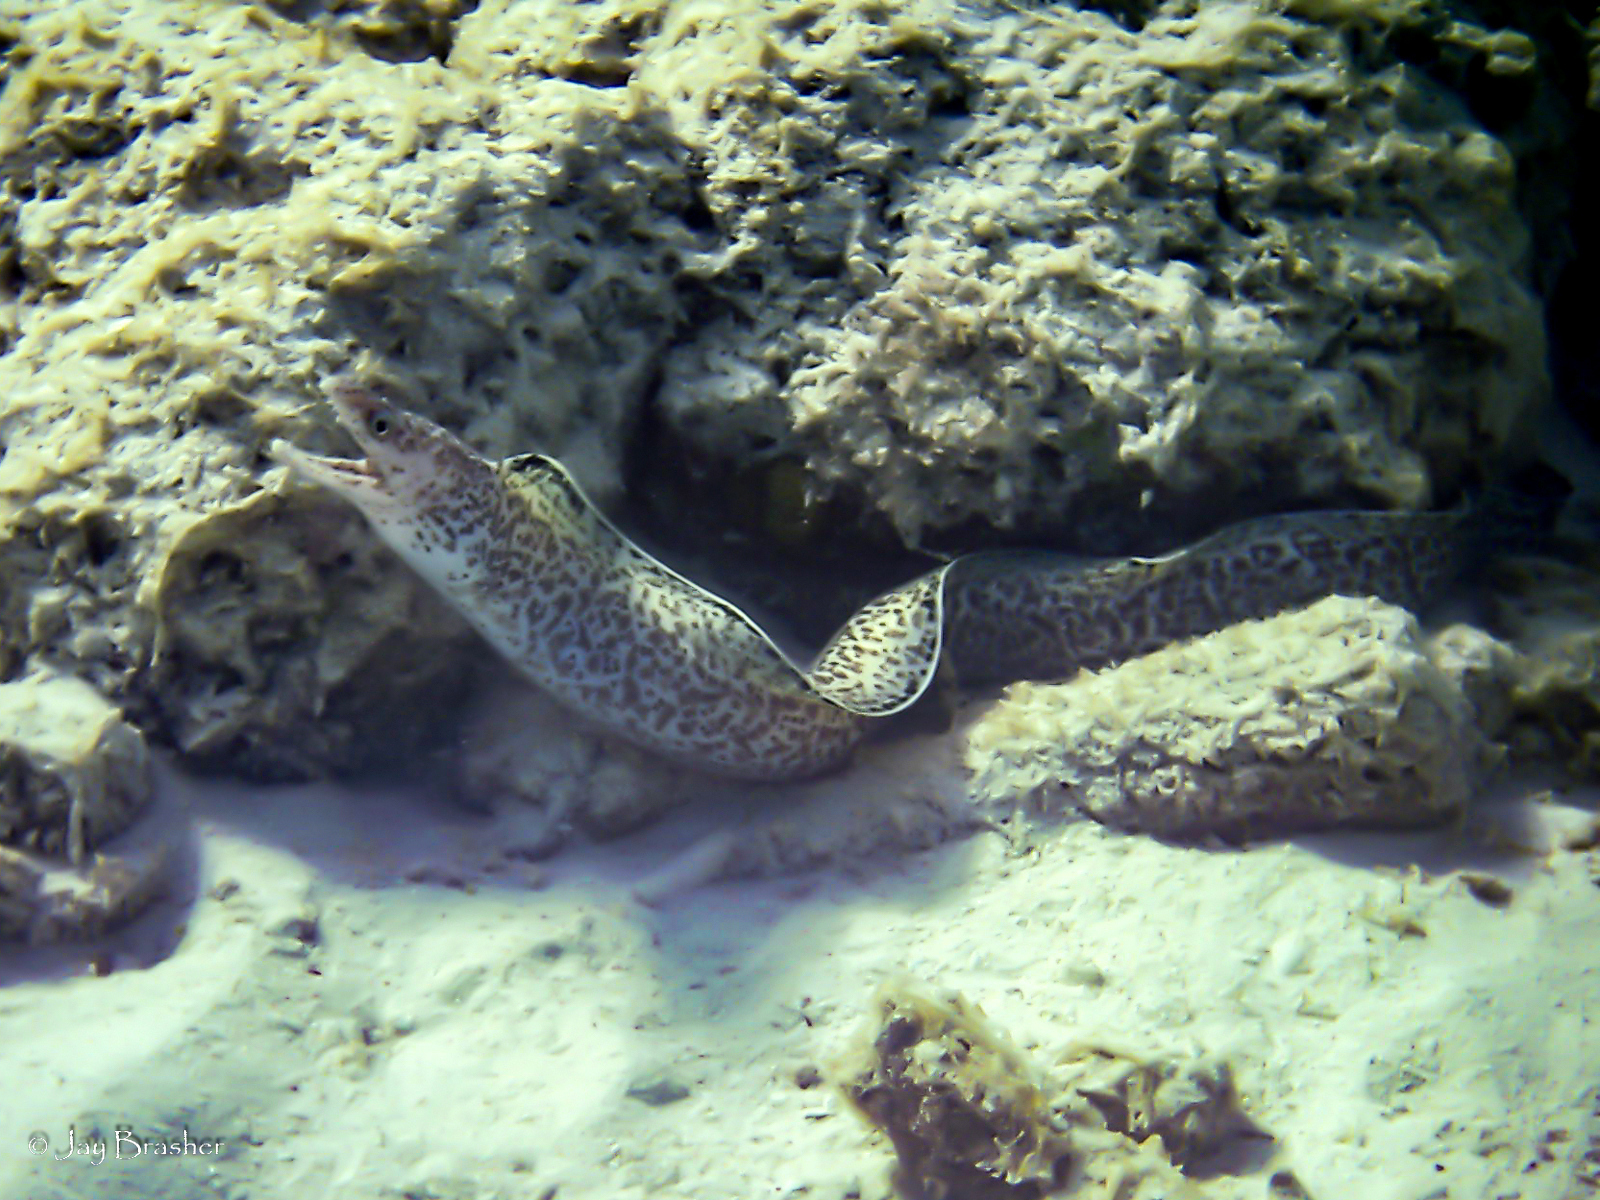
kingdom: Animalia
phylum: Chordata
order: Anguilliformes
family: Muraenidae
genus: Gymnothorax
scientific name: Gymnothorax moringa
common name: Spotted moray
